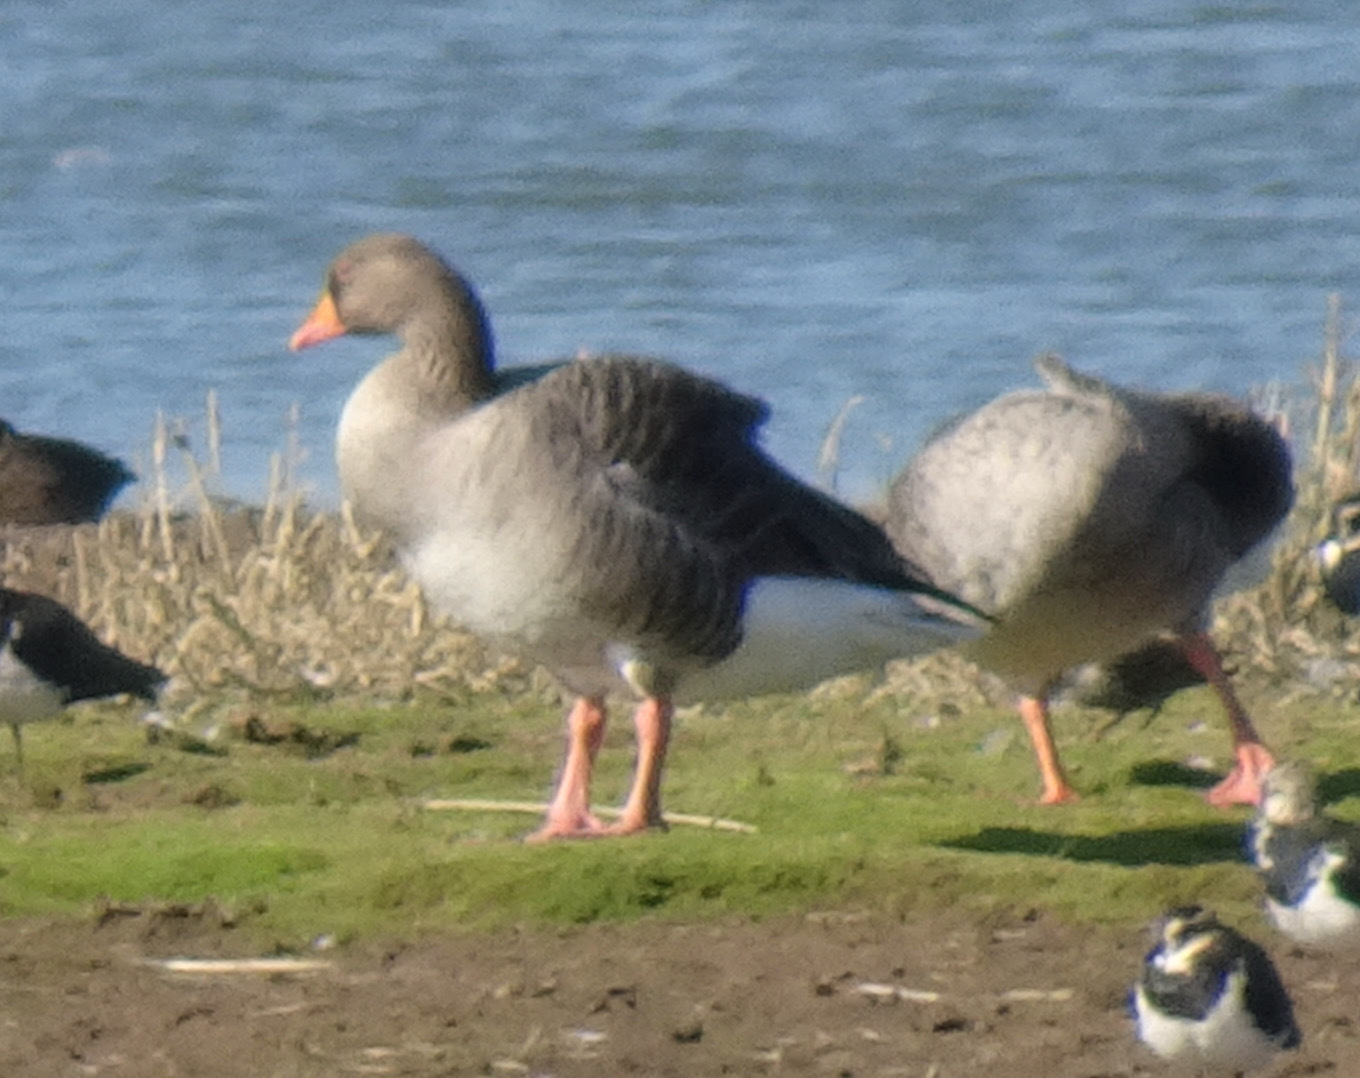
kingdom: Animalia
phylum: Chordata
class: Aves
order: Anseriformes
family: Anatidae
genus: Anser
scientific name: Anser anser
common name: Greylag goose
